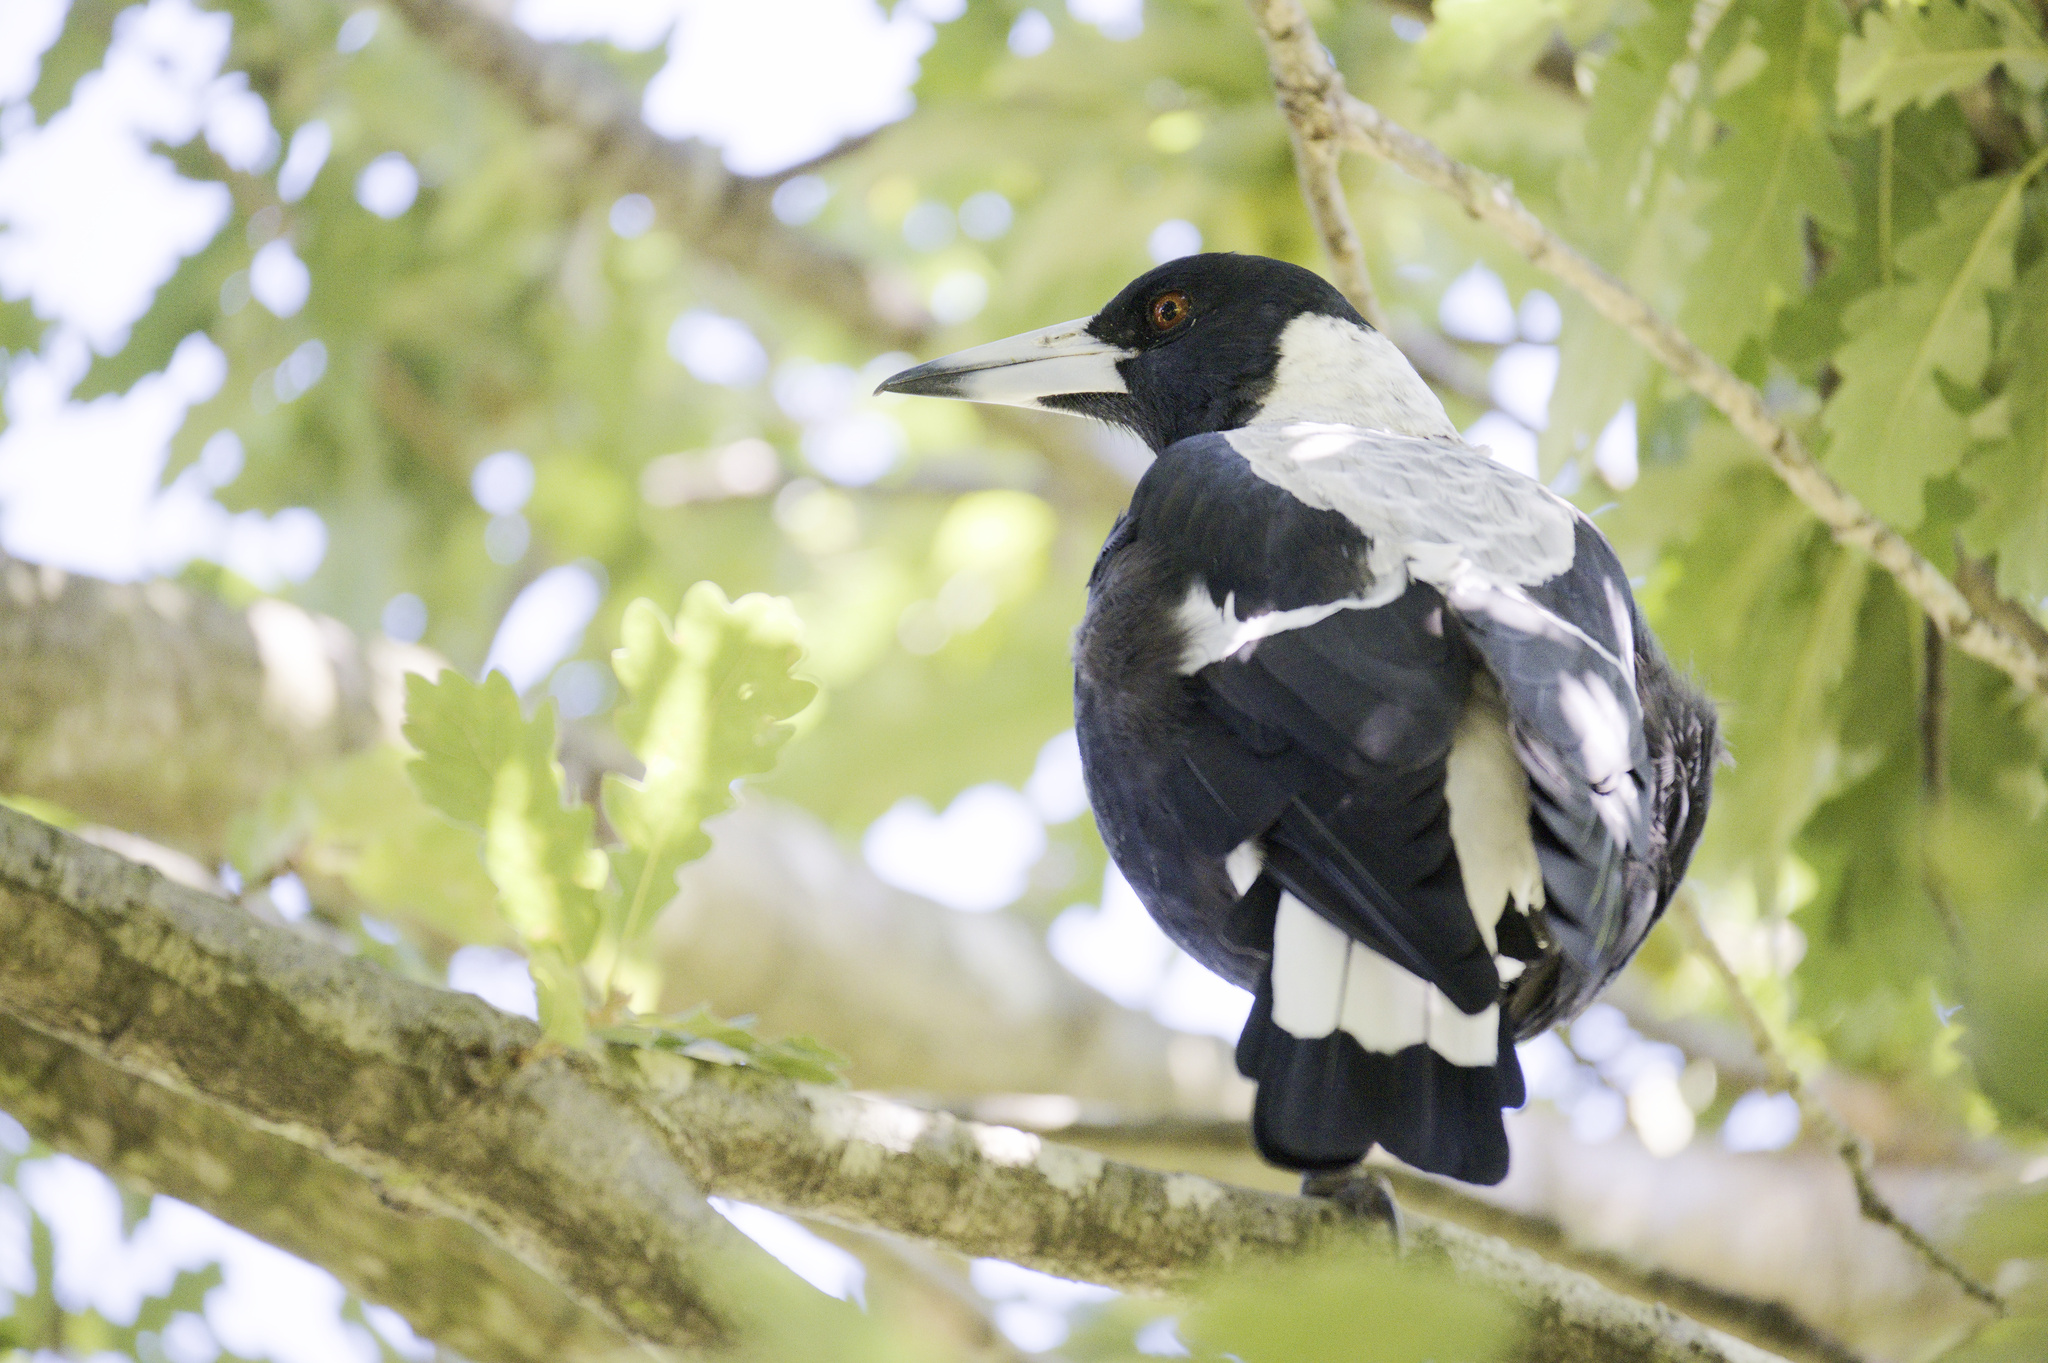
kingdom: Animalia
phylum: Chordata
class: Aves
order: Passeriformes
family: Cracticidae
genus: Gymnorhina
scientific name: Gymnorhina tibicen
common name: Australian magpie
